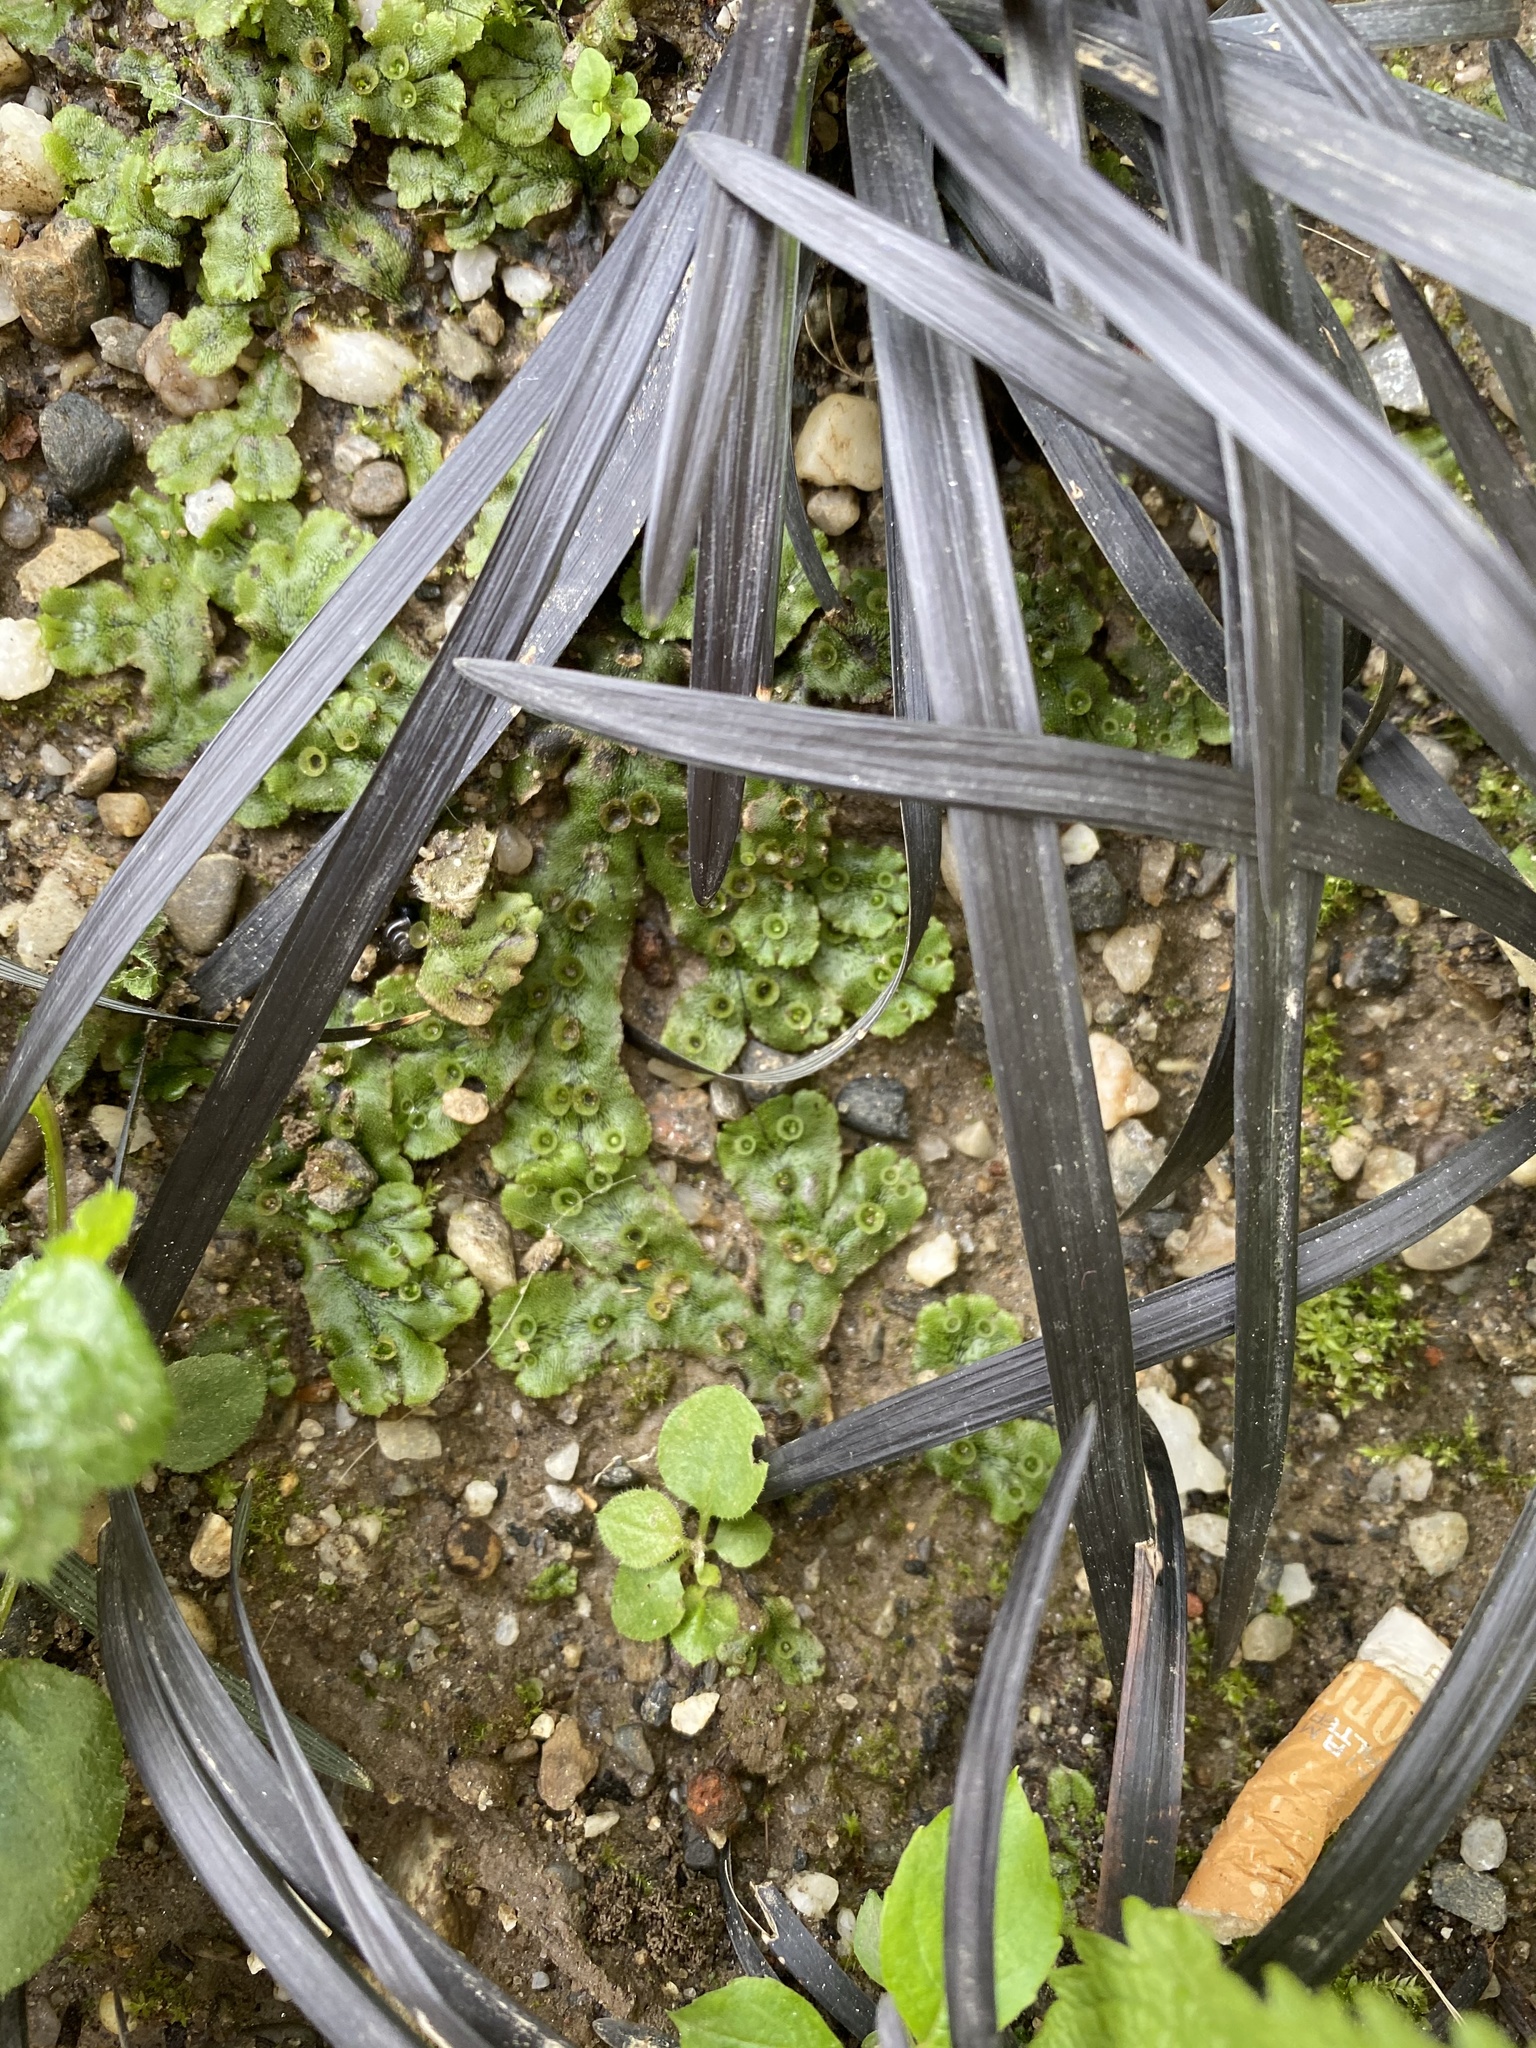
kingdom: Plantae
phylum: Marchantiophyta
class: Marchantiopsida
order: Marchantiales
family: Marchantiaceae
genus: Marchantia
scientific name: Marchantia polymorpha
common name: Common liverwort
